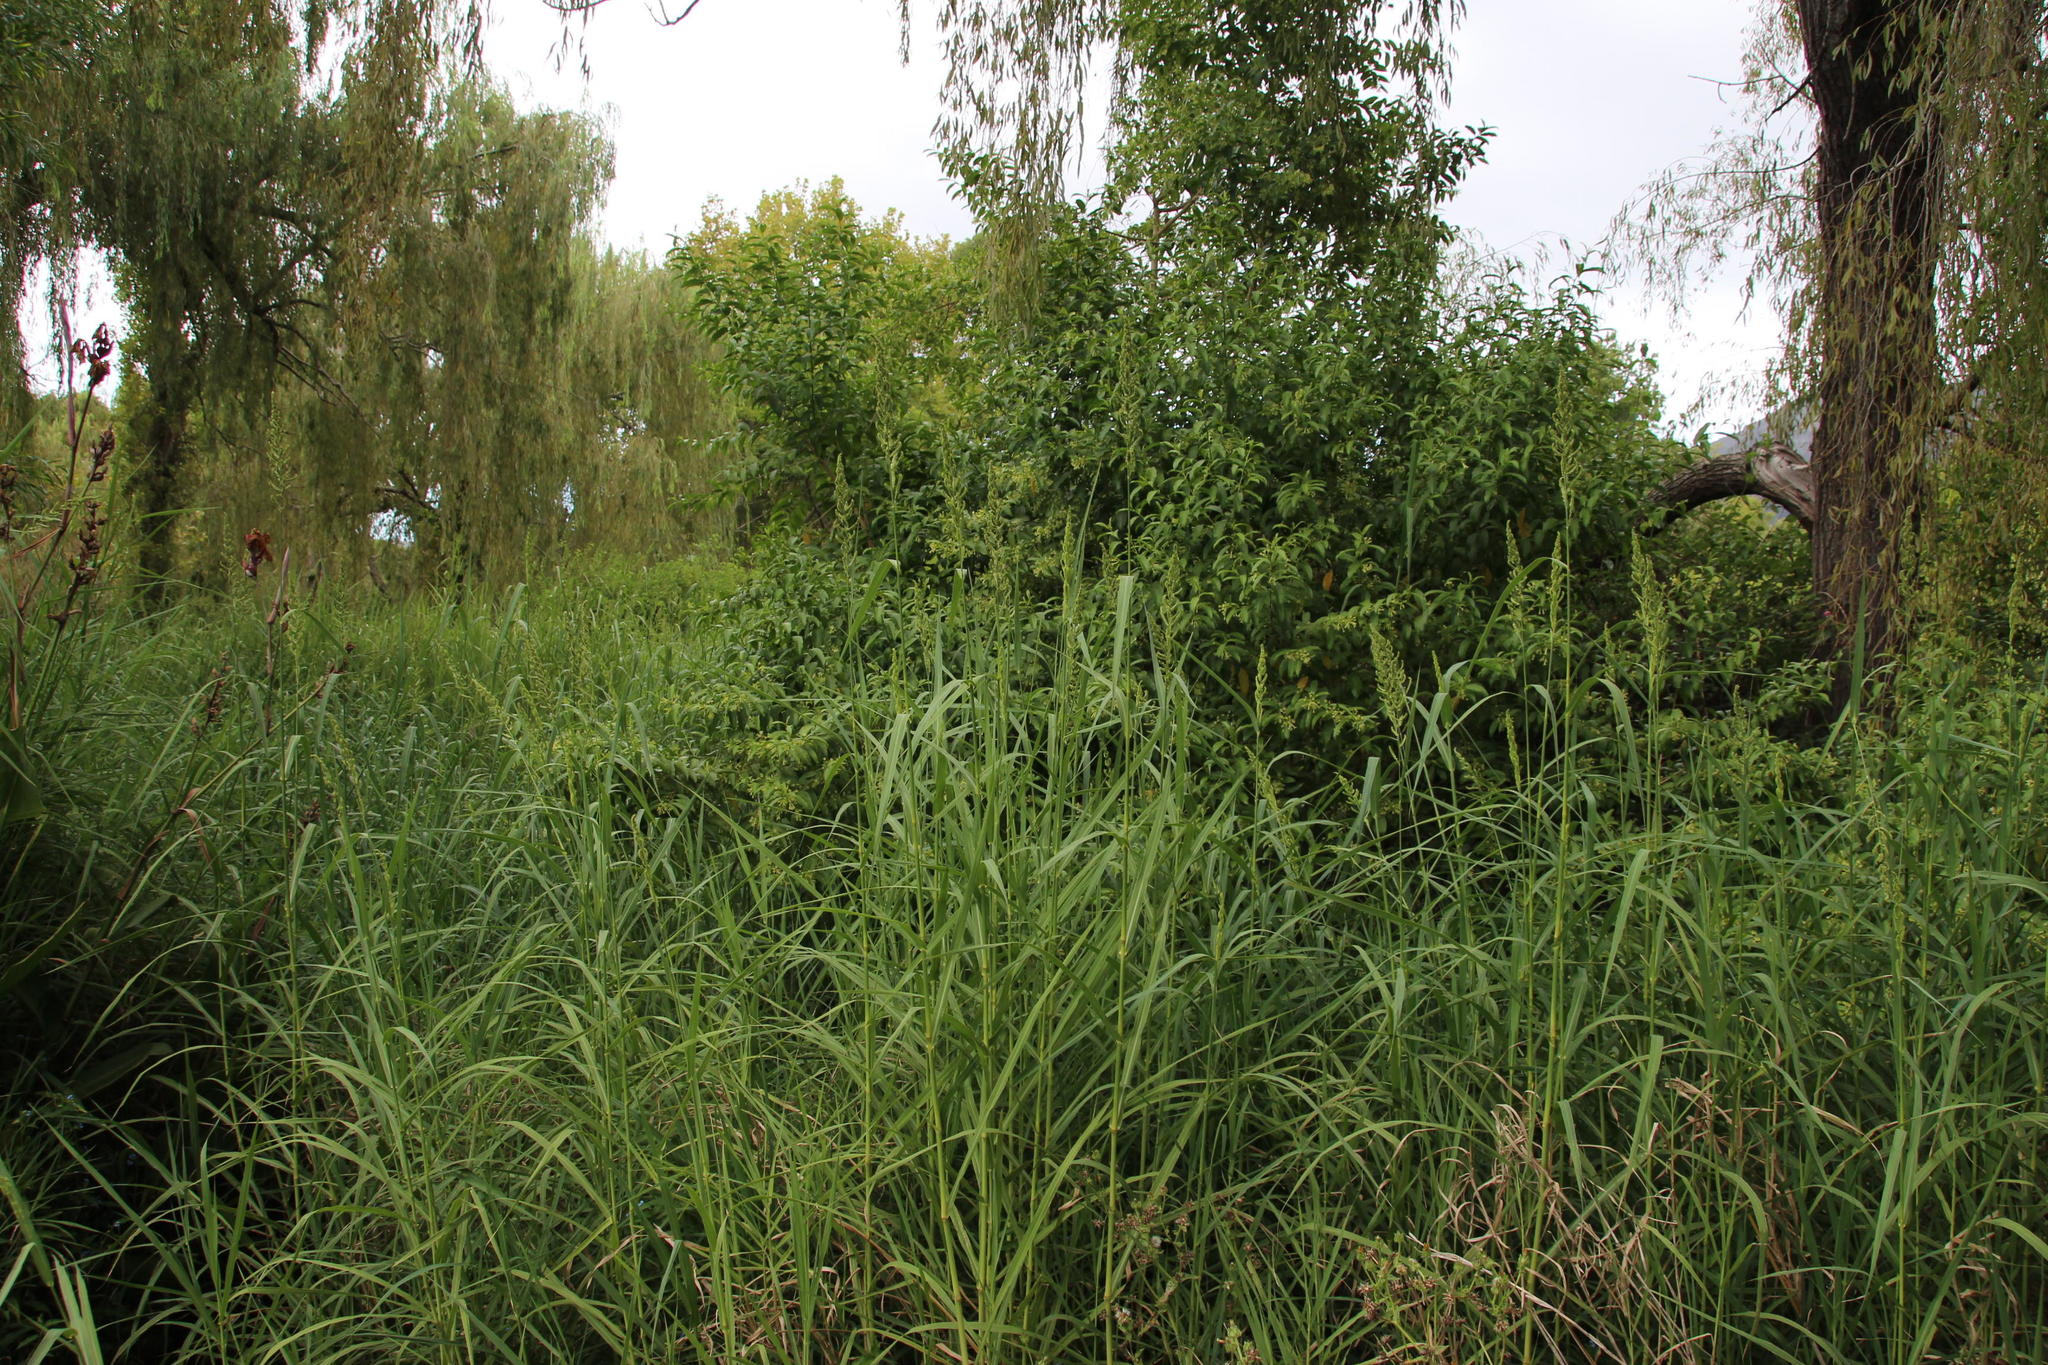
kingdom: Plantae
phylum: Tracheophyta
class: Magnoliopsida
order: Solanales
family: Solanaceae
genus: Cestrum
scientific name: Cestrum laevigatum
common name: Inkberry
